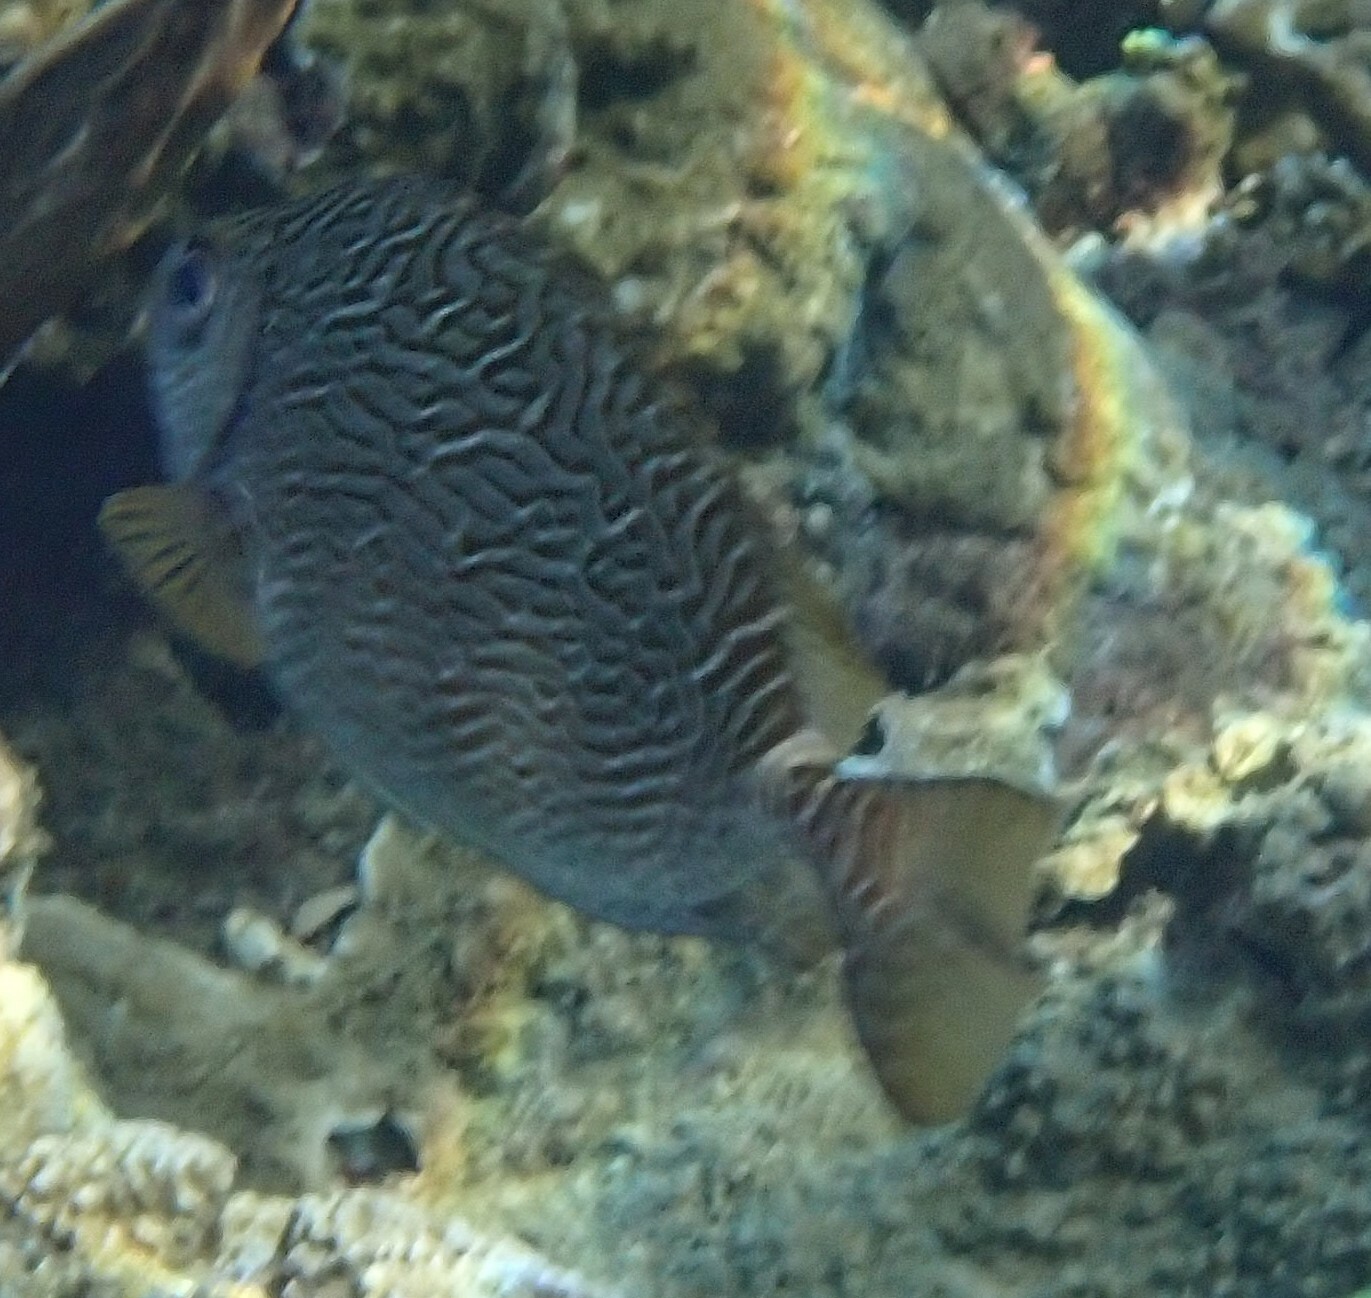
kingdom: Animalia
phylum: Chordata
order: Perciformes
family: Siganidae
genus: Siganus
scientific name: Siganus spinus
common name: Scribbled rabbitfish
